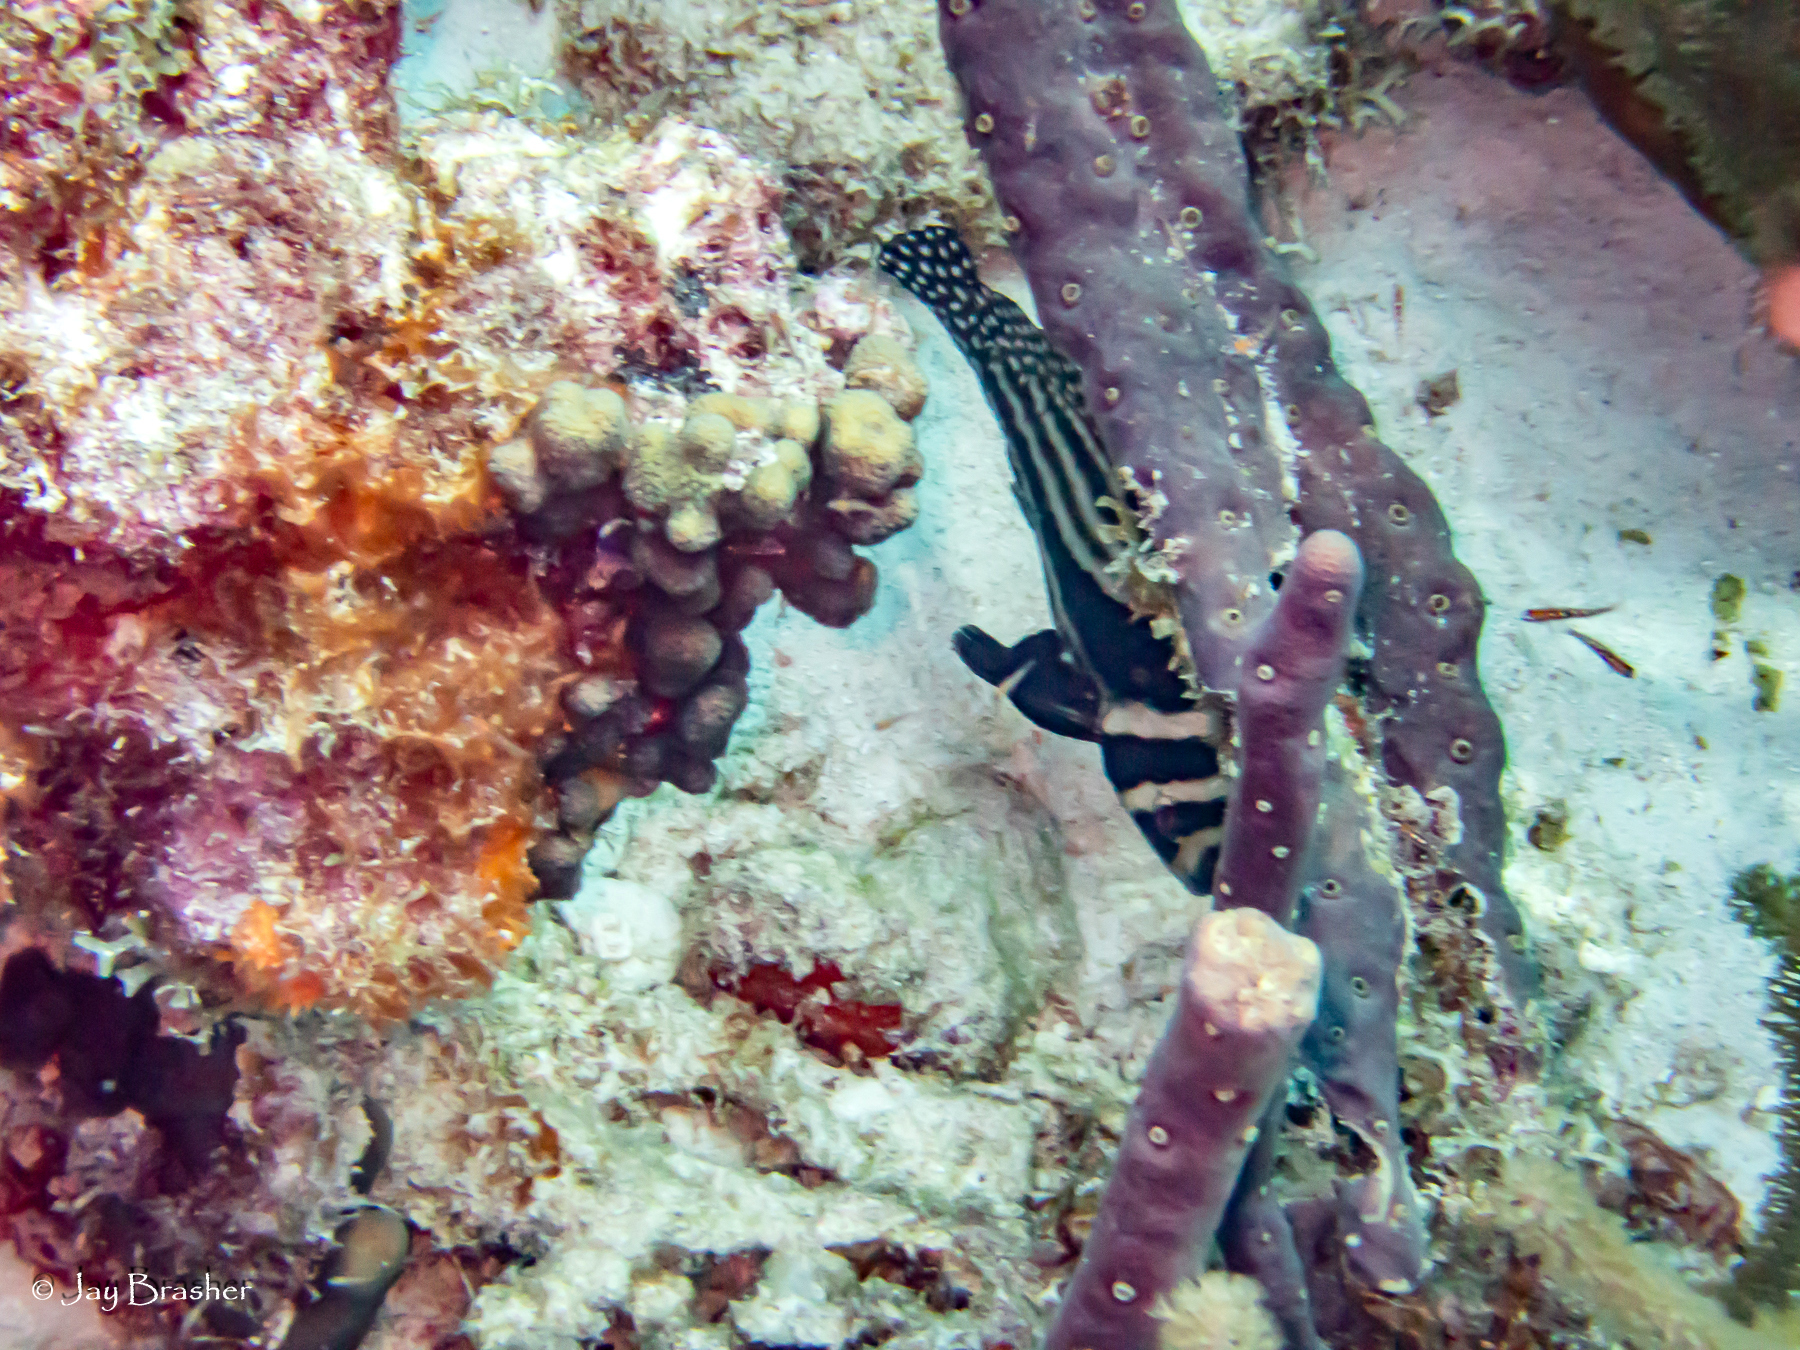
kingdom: Animalia
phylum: Chordata
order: Perciformes
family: Sciaenidae
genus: Equetus
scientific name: Equetus punctatus
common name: Spotted drum
